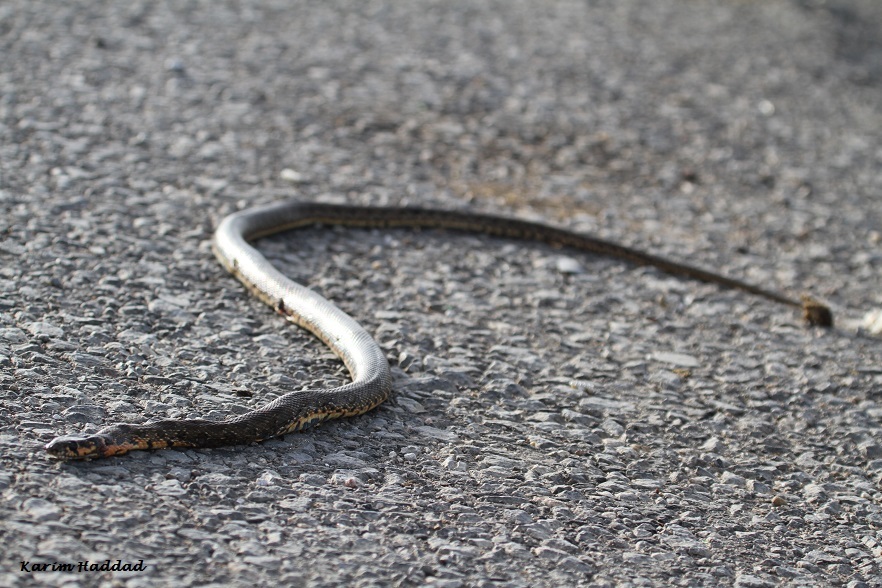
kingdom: Animalia
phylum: Chordata
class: Squamata
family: Colubridae
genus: Hemorrhois
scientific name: Hemorrhois hippocrepis
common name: Horseshoe whip snake
